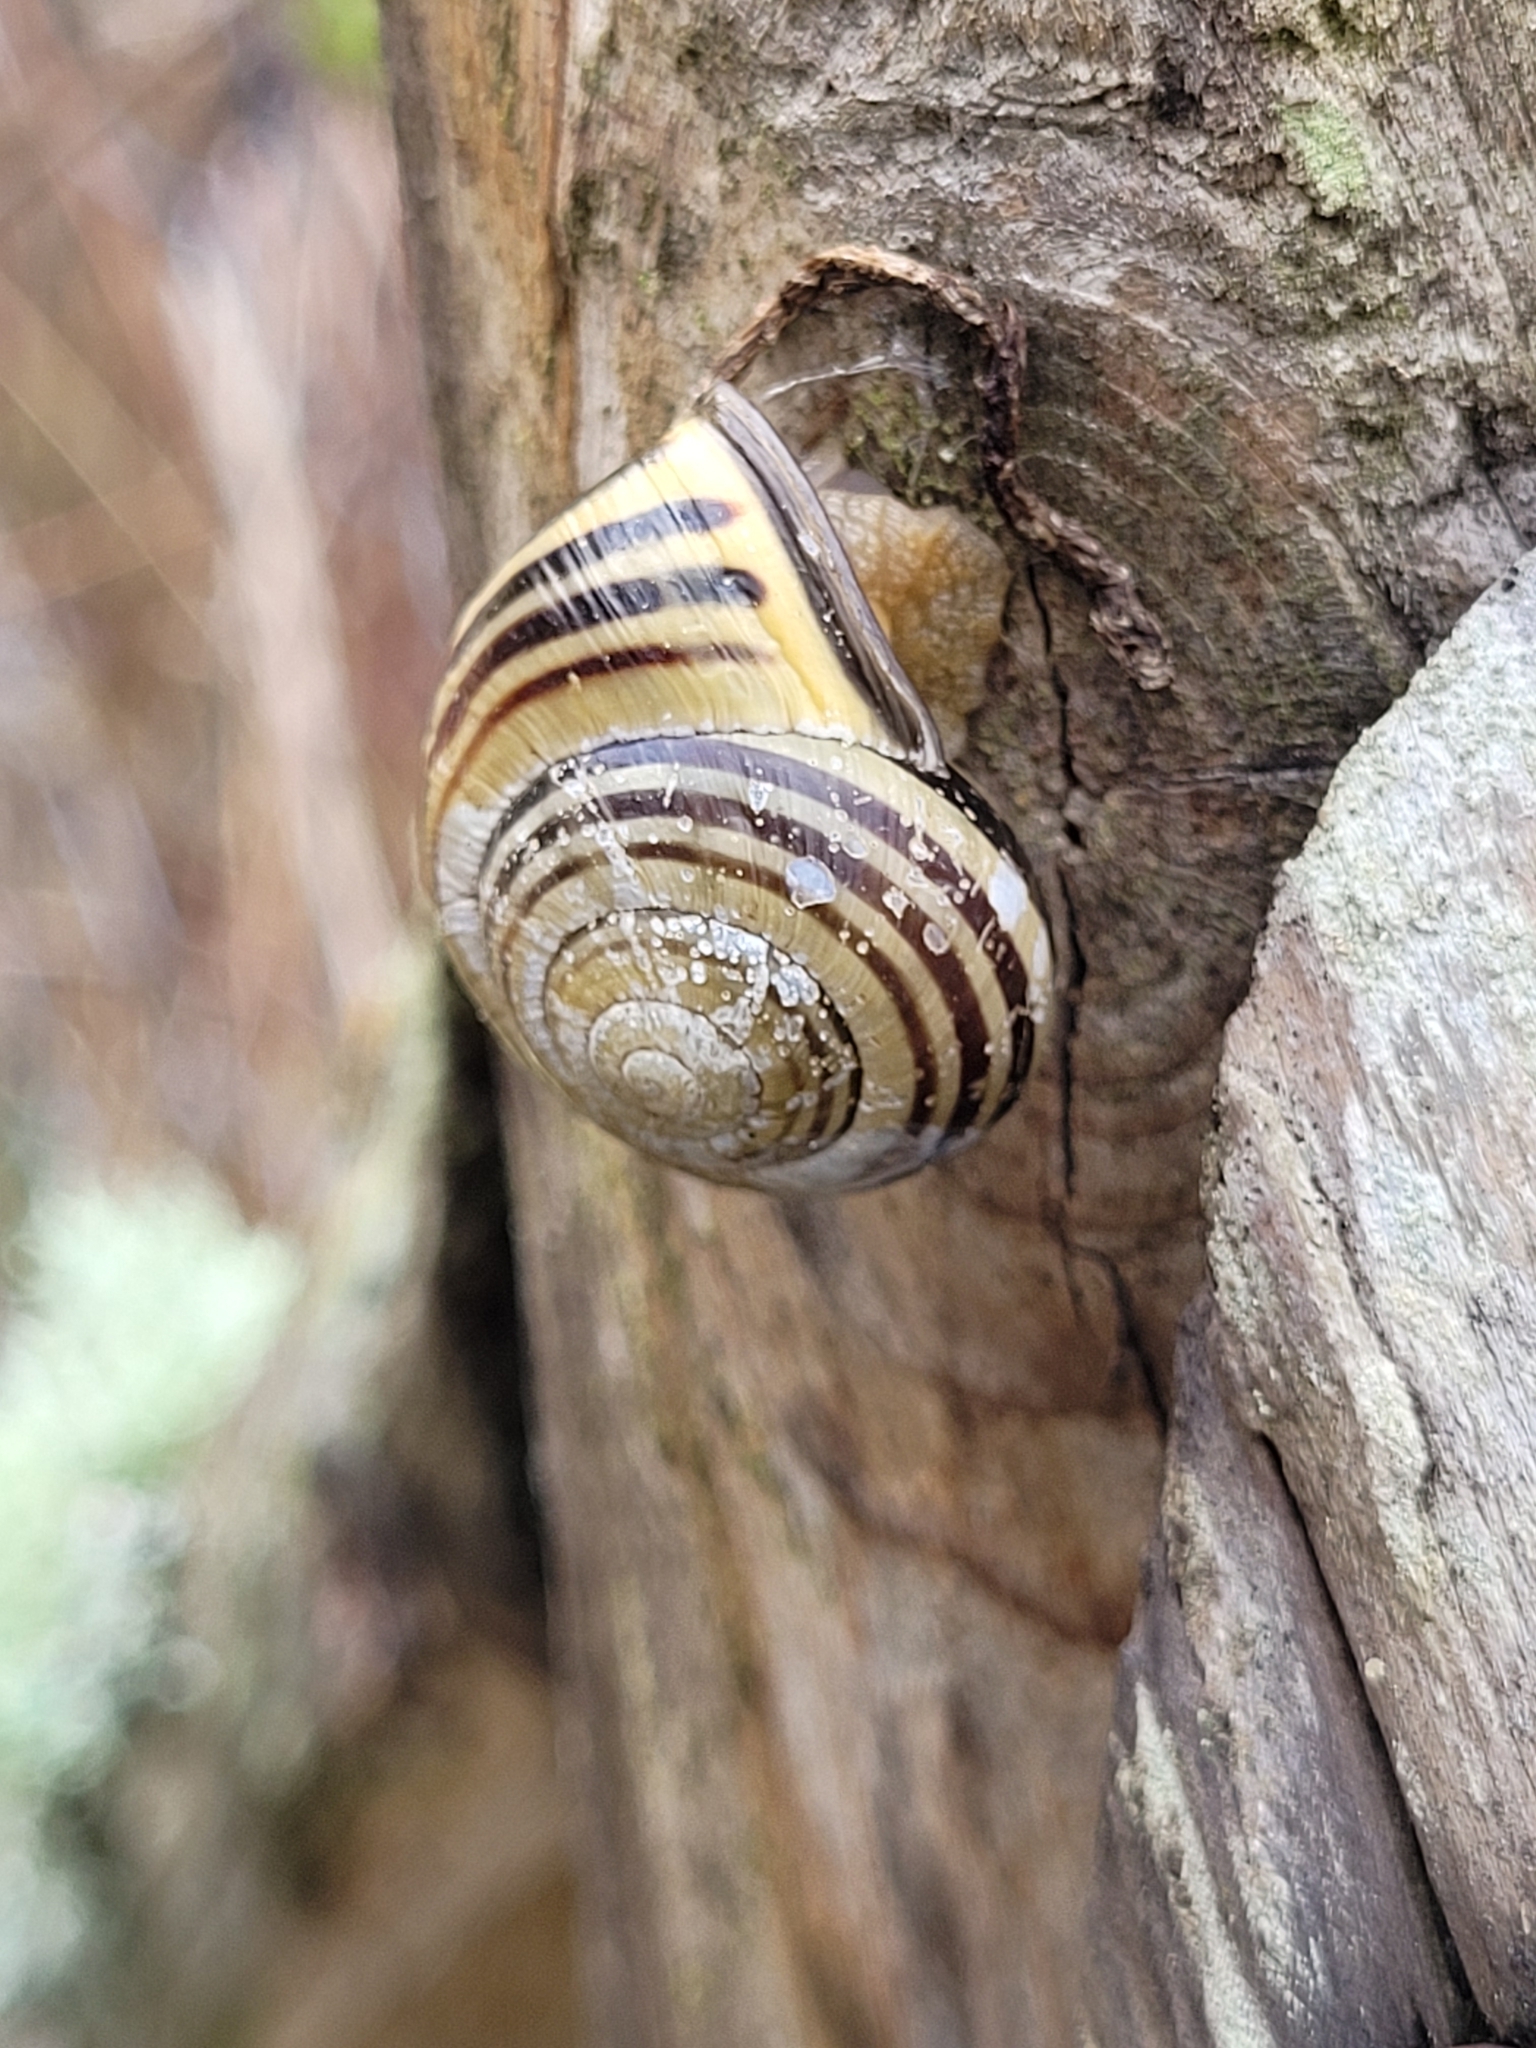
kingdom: Animalia
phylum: Mollusca
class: Gastropoda
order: Stylommatophora
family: Helicidae
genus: Cepaea
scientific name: Cepaea nemoralis
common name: Grovesnail
